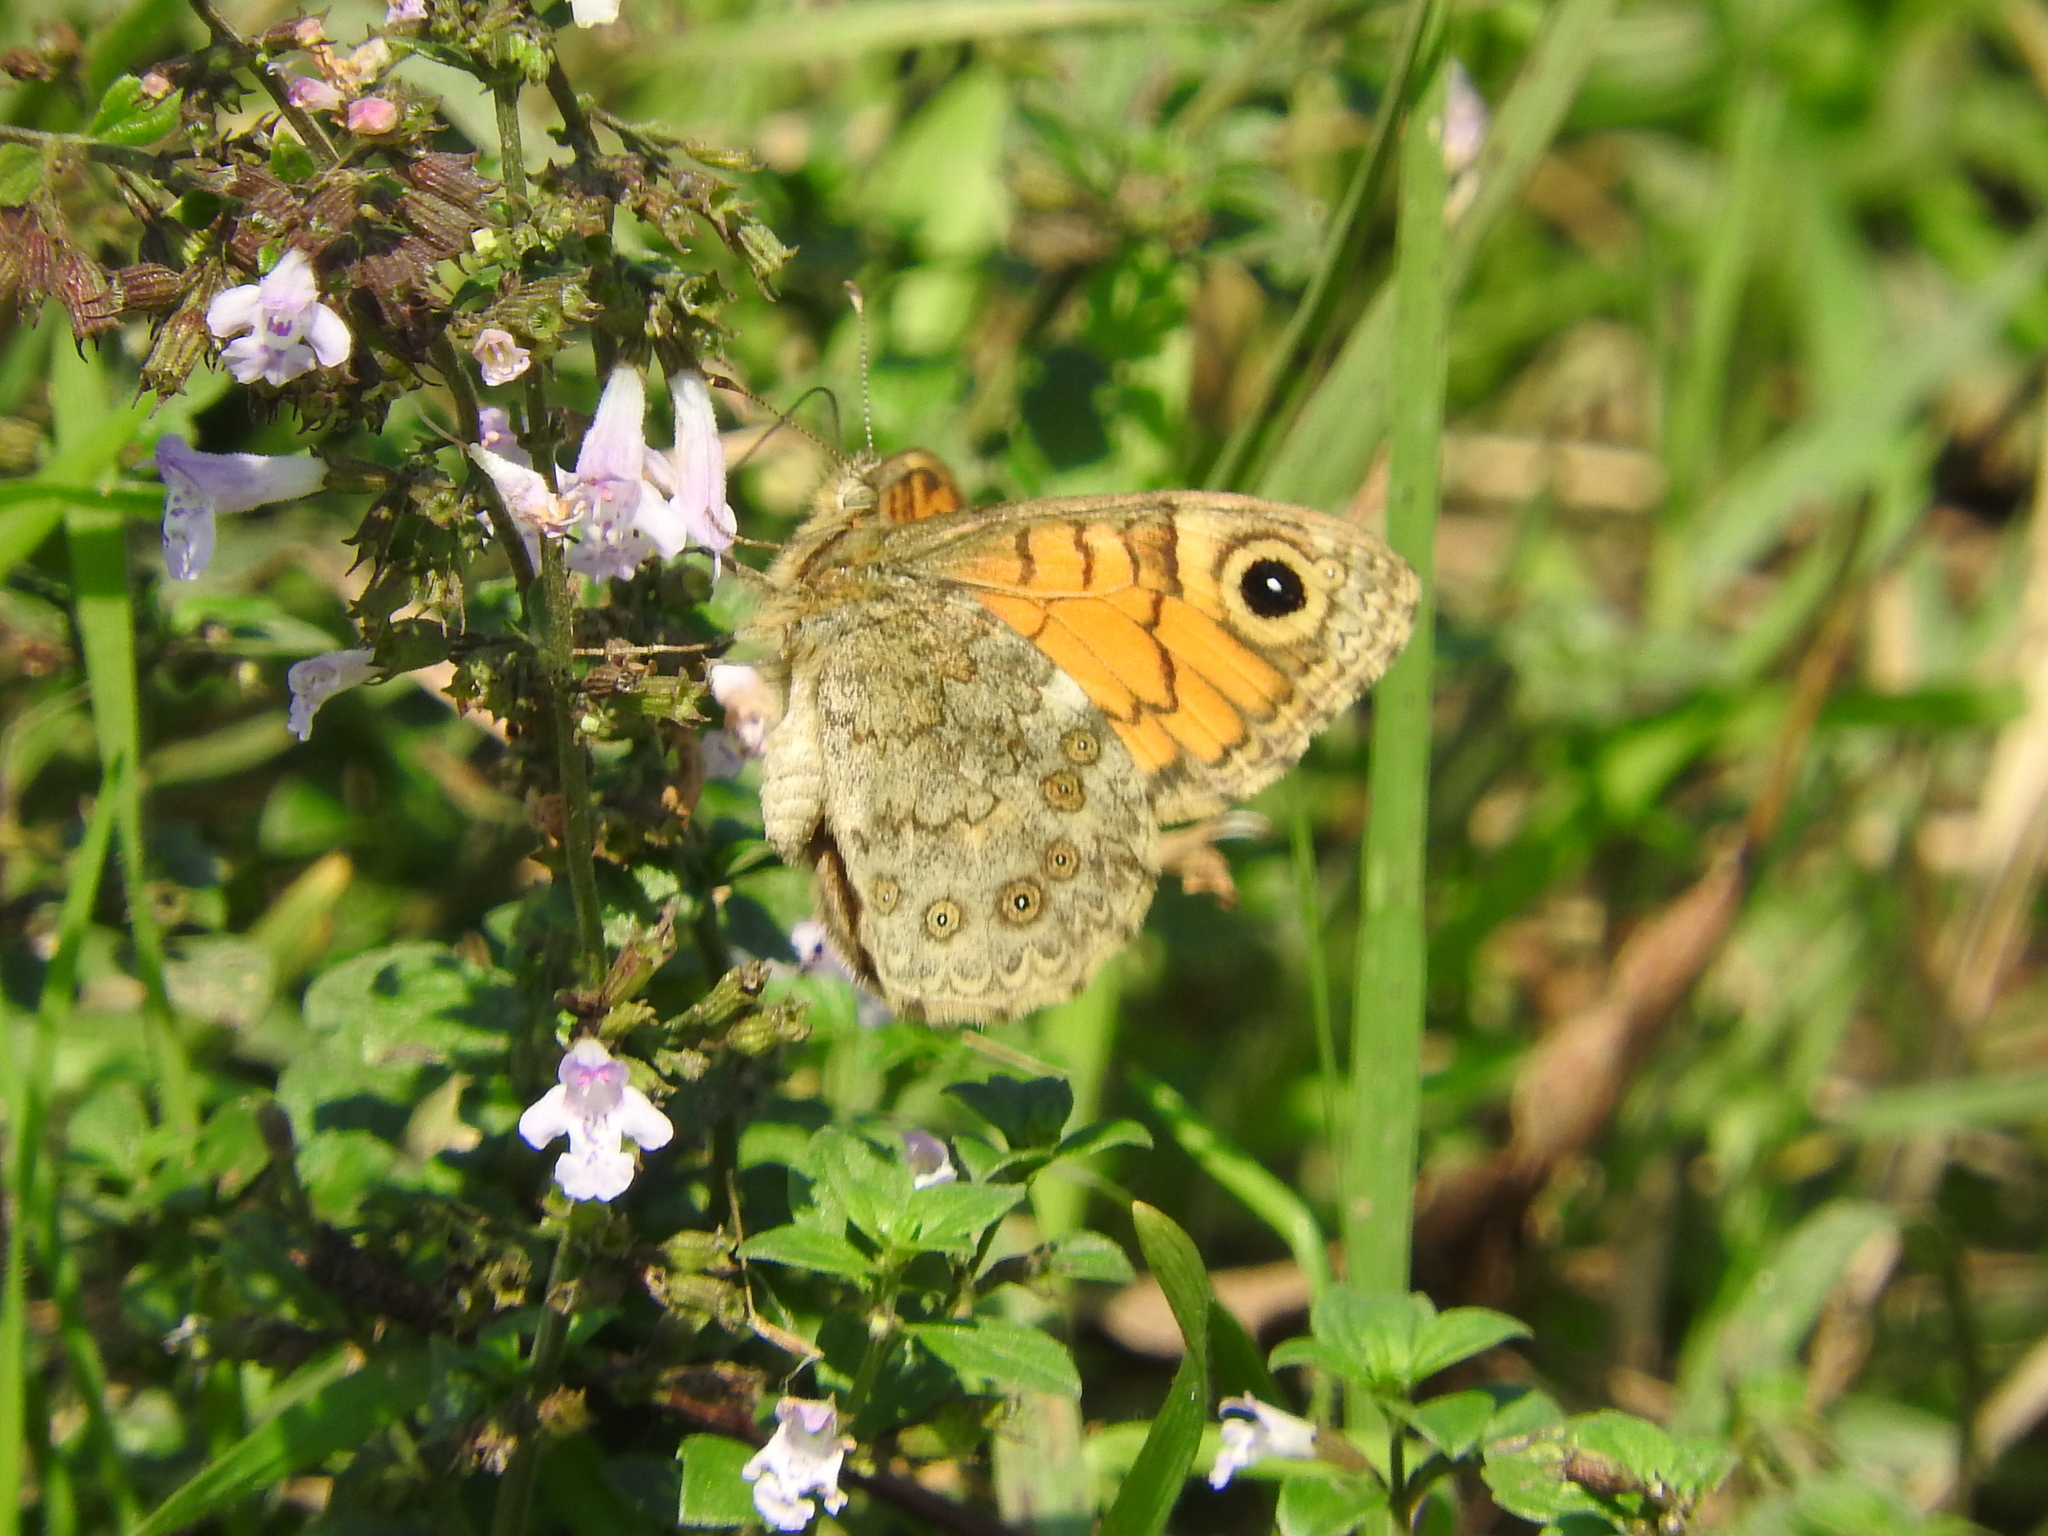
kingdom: Animalia
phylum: Arthropoda
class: Insecta
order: Lepidoptera
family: Nymphalidae
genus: Pararge
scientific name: Pararge Lasiommata megera
